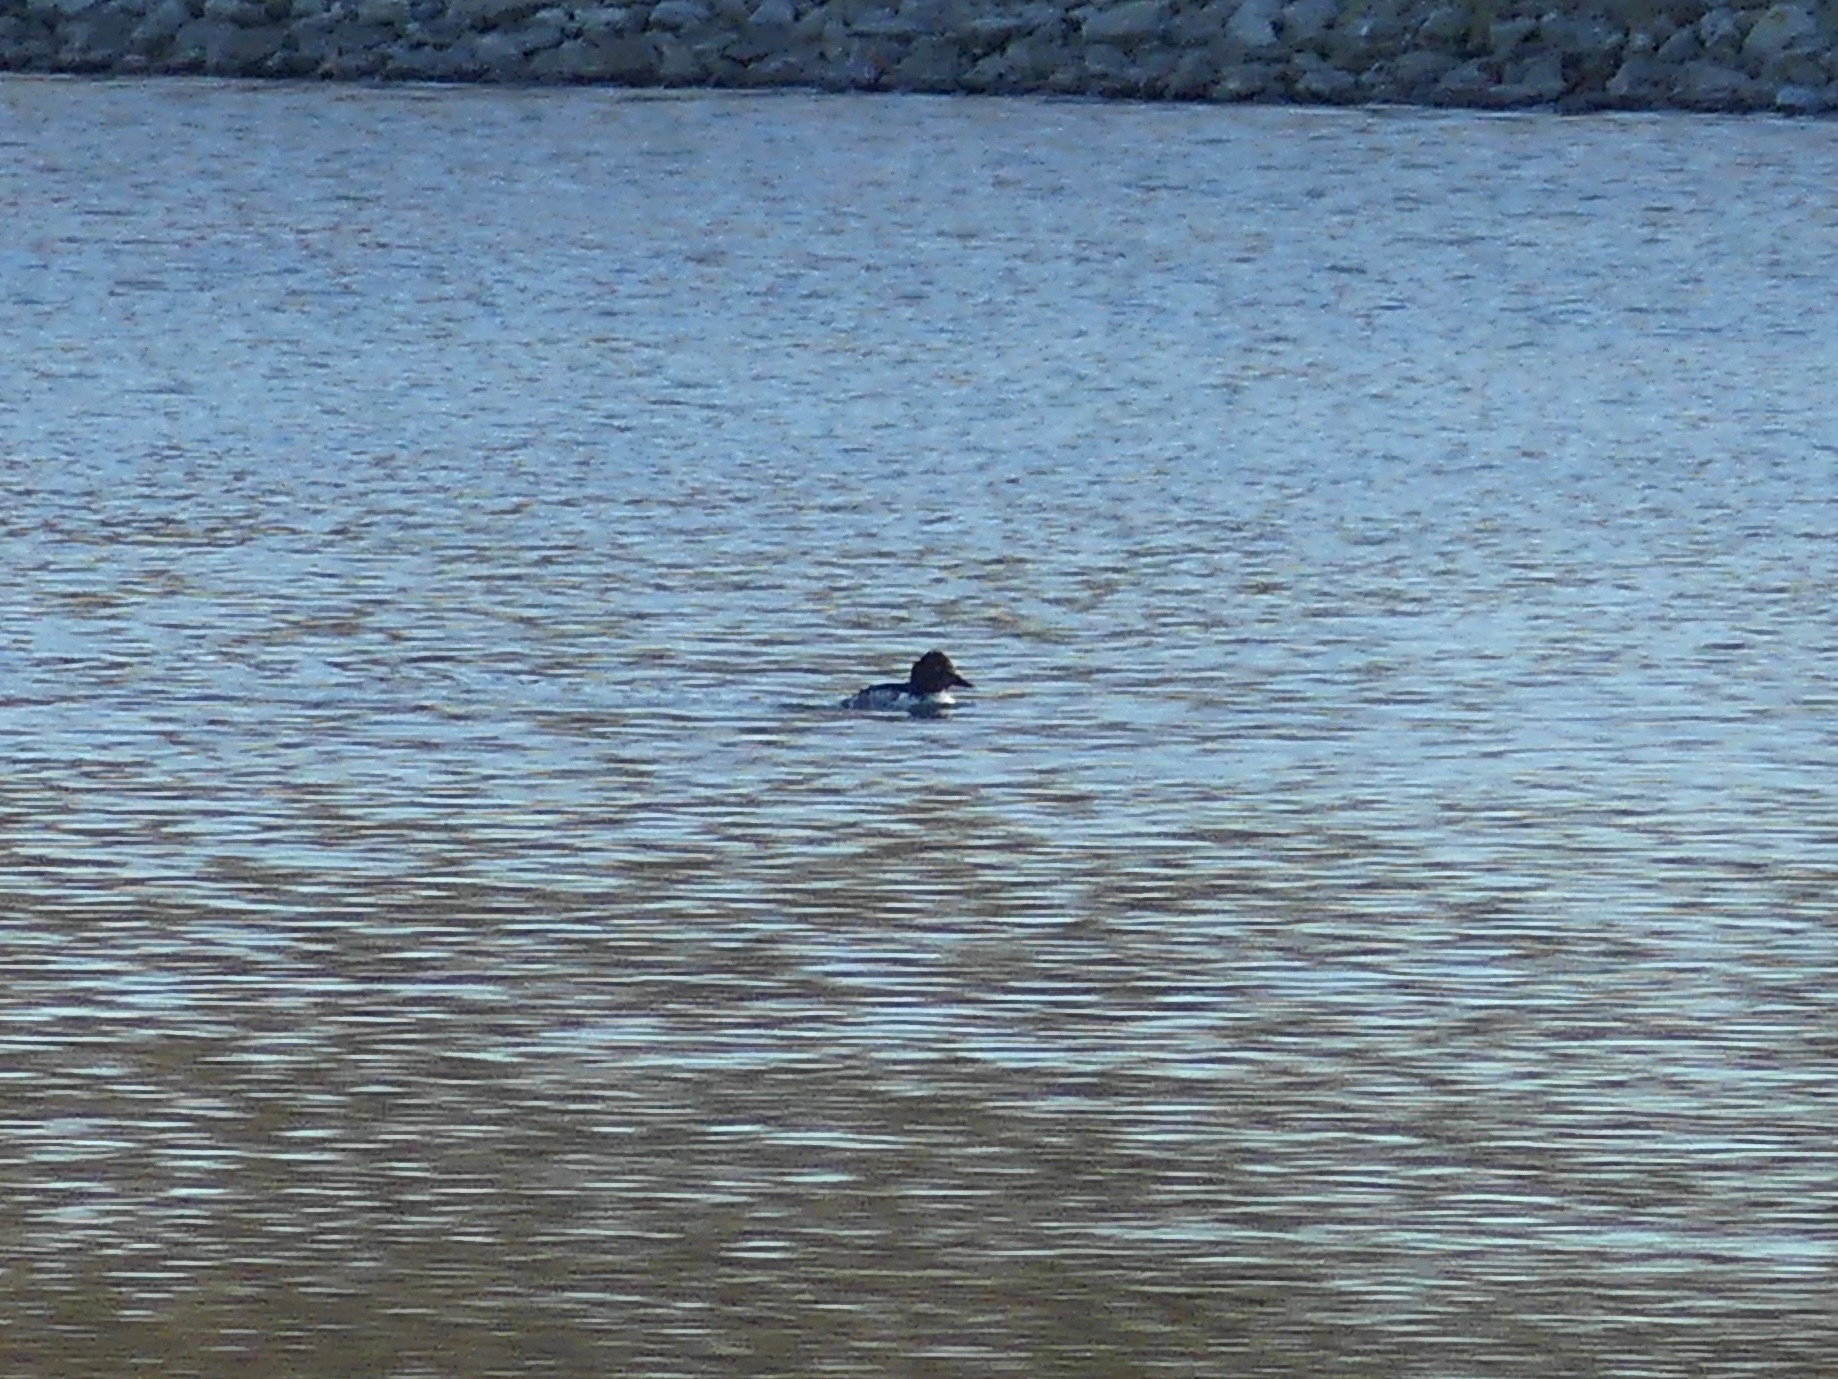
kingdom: Animalia
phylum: Chordata
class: Aves
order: Anseriformes
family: Anatidae
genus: Bucephala
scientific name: Bucephala clangula
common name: Common goldeneye
